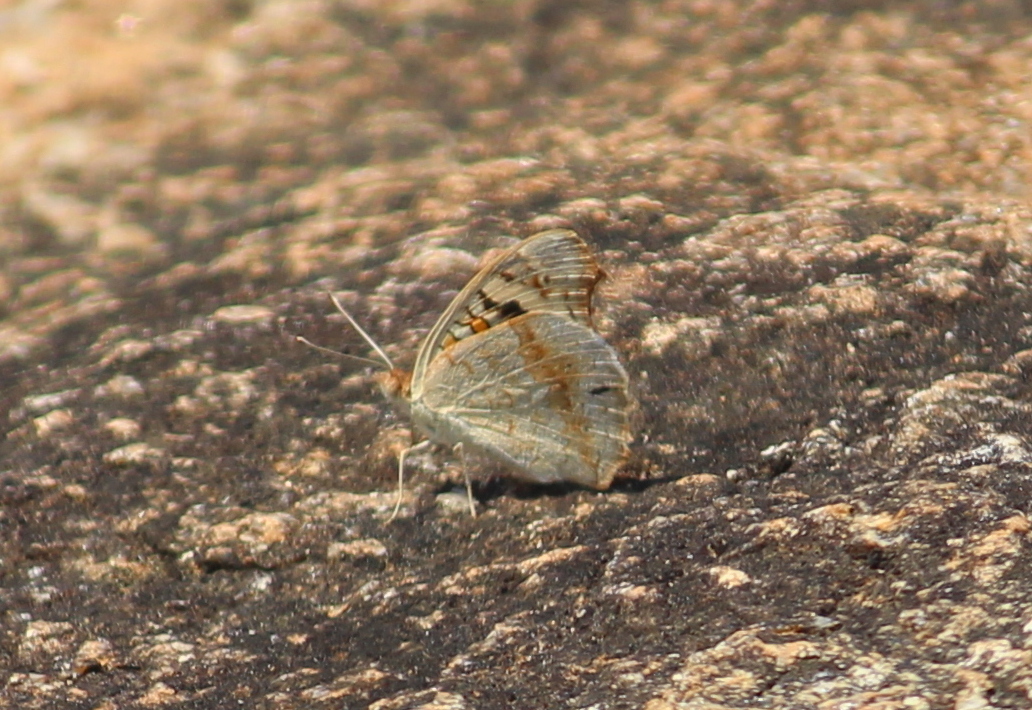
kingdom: Animalia
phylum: Arthropoda
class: Insecta
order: Lepidoptera
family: Nymphalidae
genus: Junonia
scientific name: Junonia orithya
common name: Blue pansy
